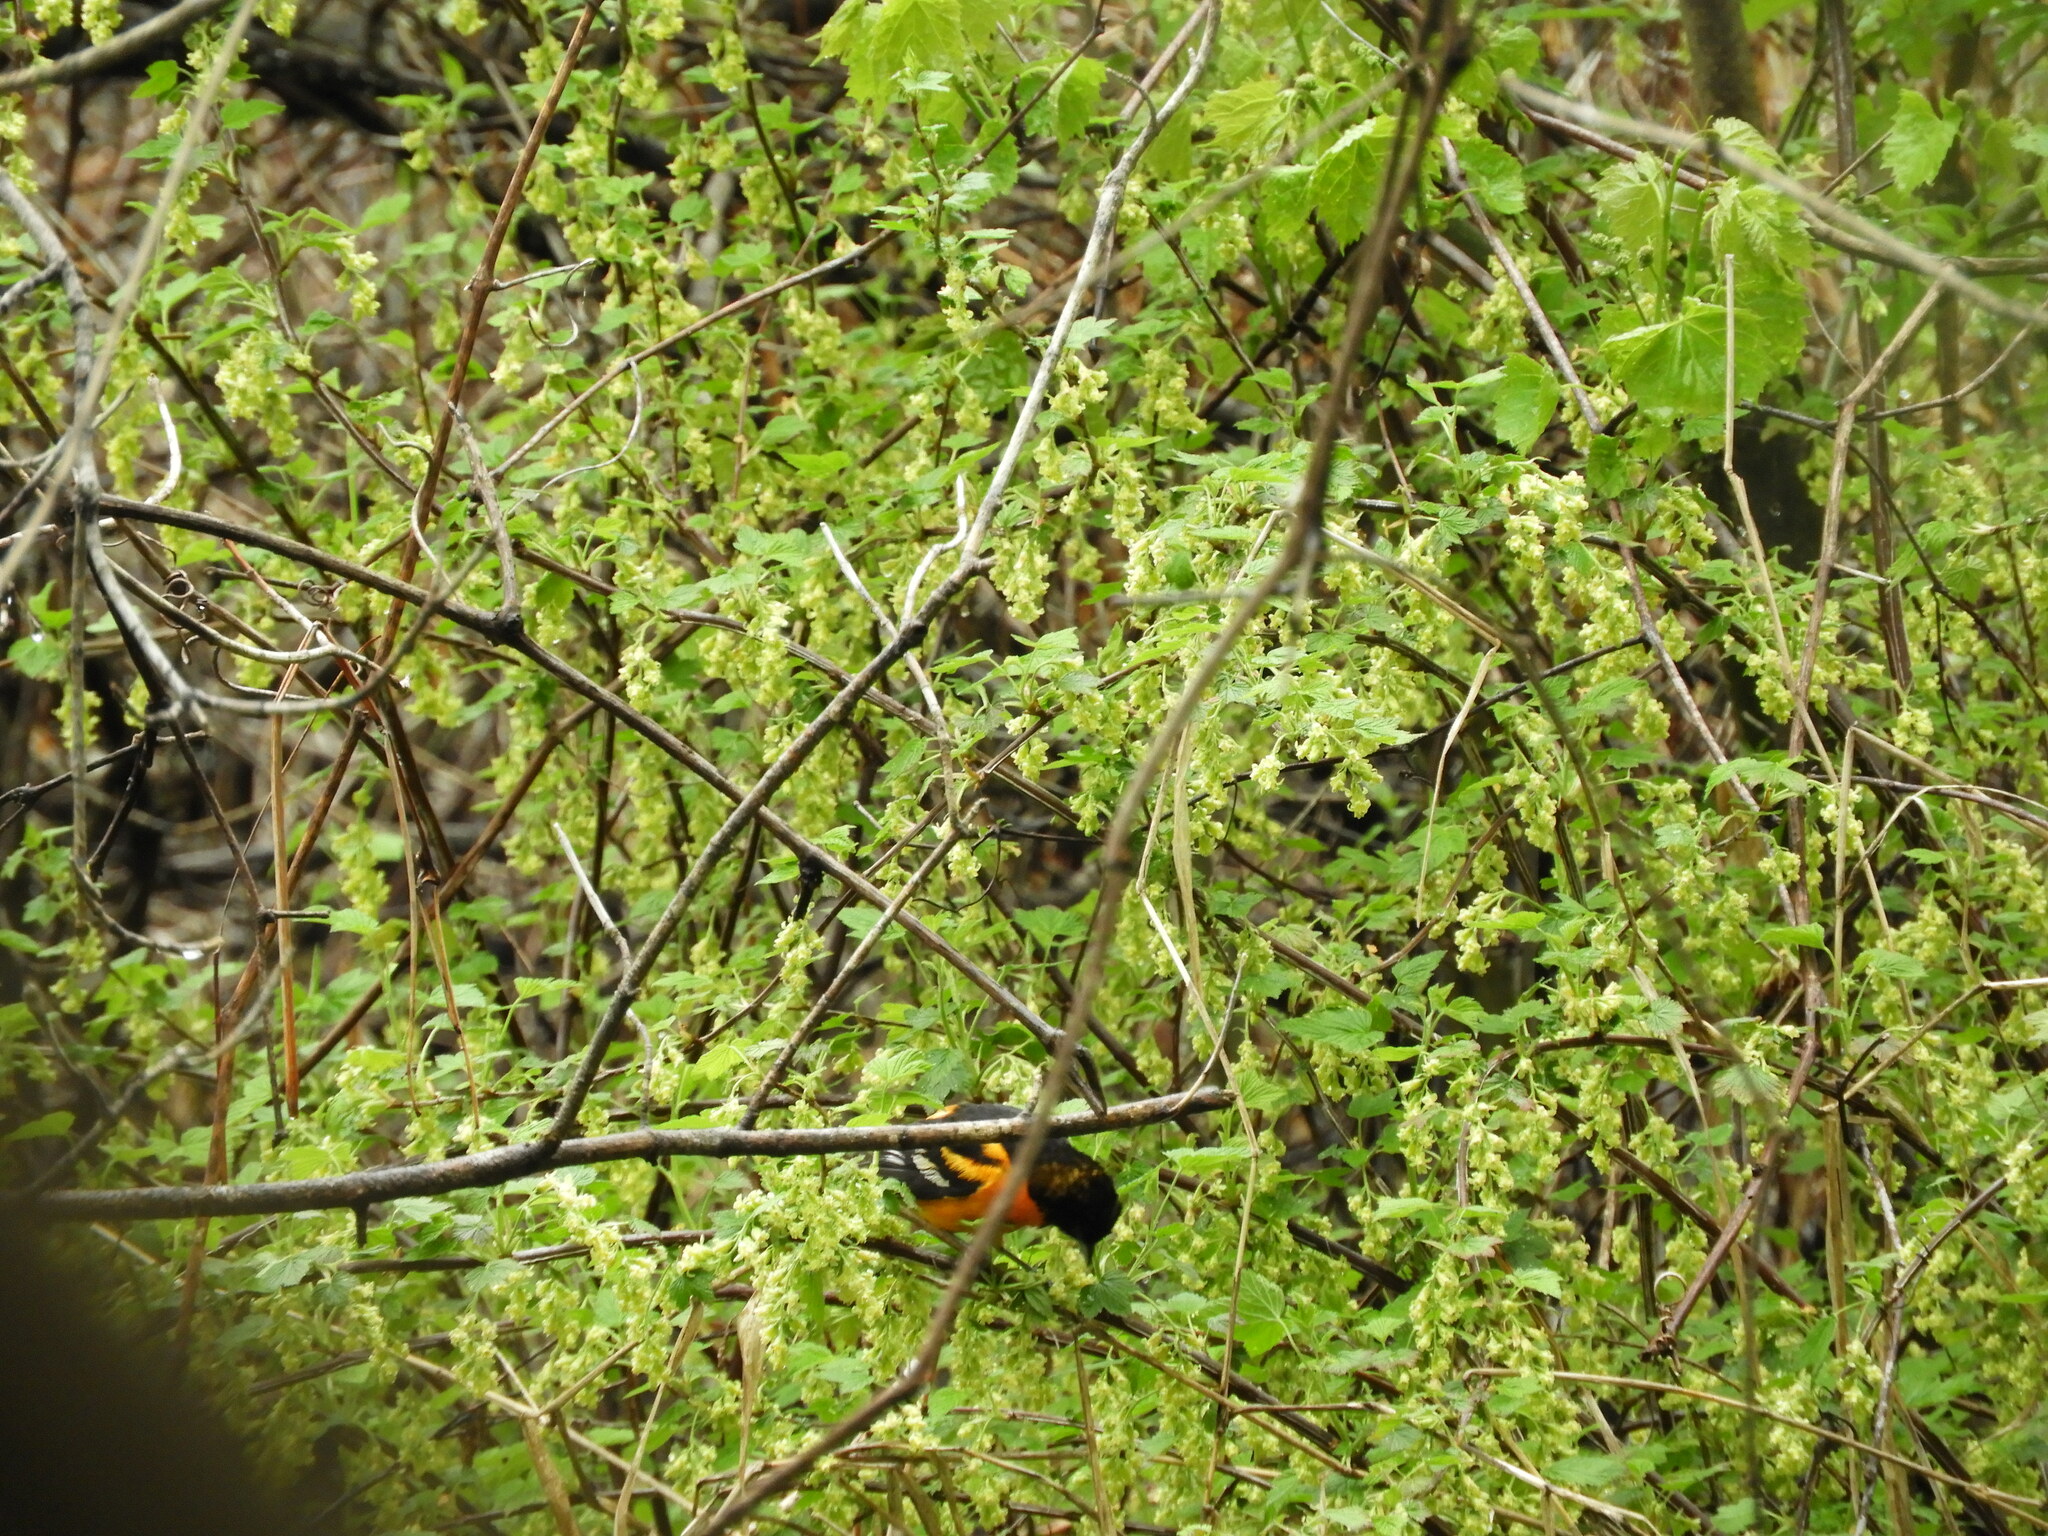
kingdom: Animalia
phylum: Chordata
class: Aves
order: Passeriformes
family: Icteridae
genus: Icterus
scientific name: Icterus galbula
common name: Baltimore oriole
